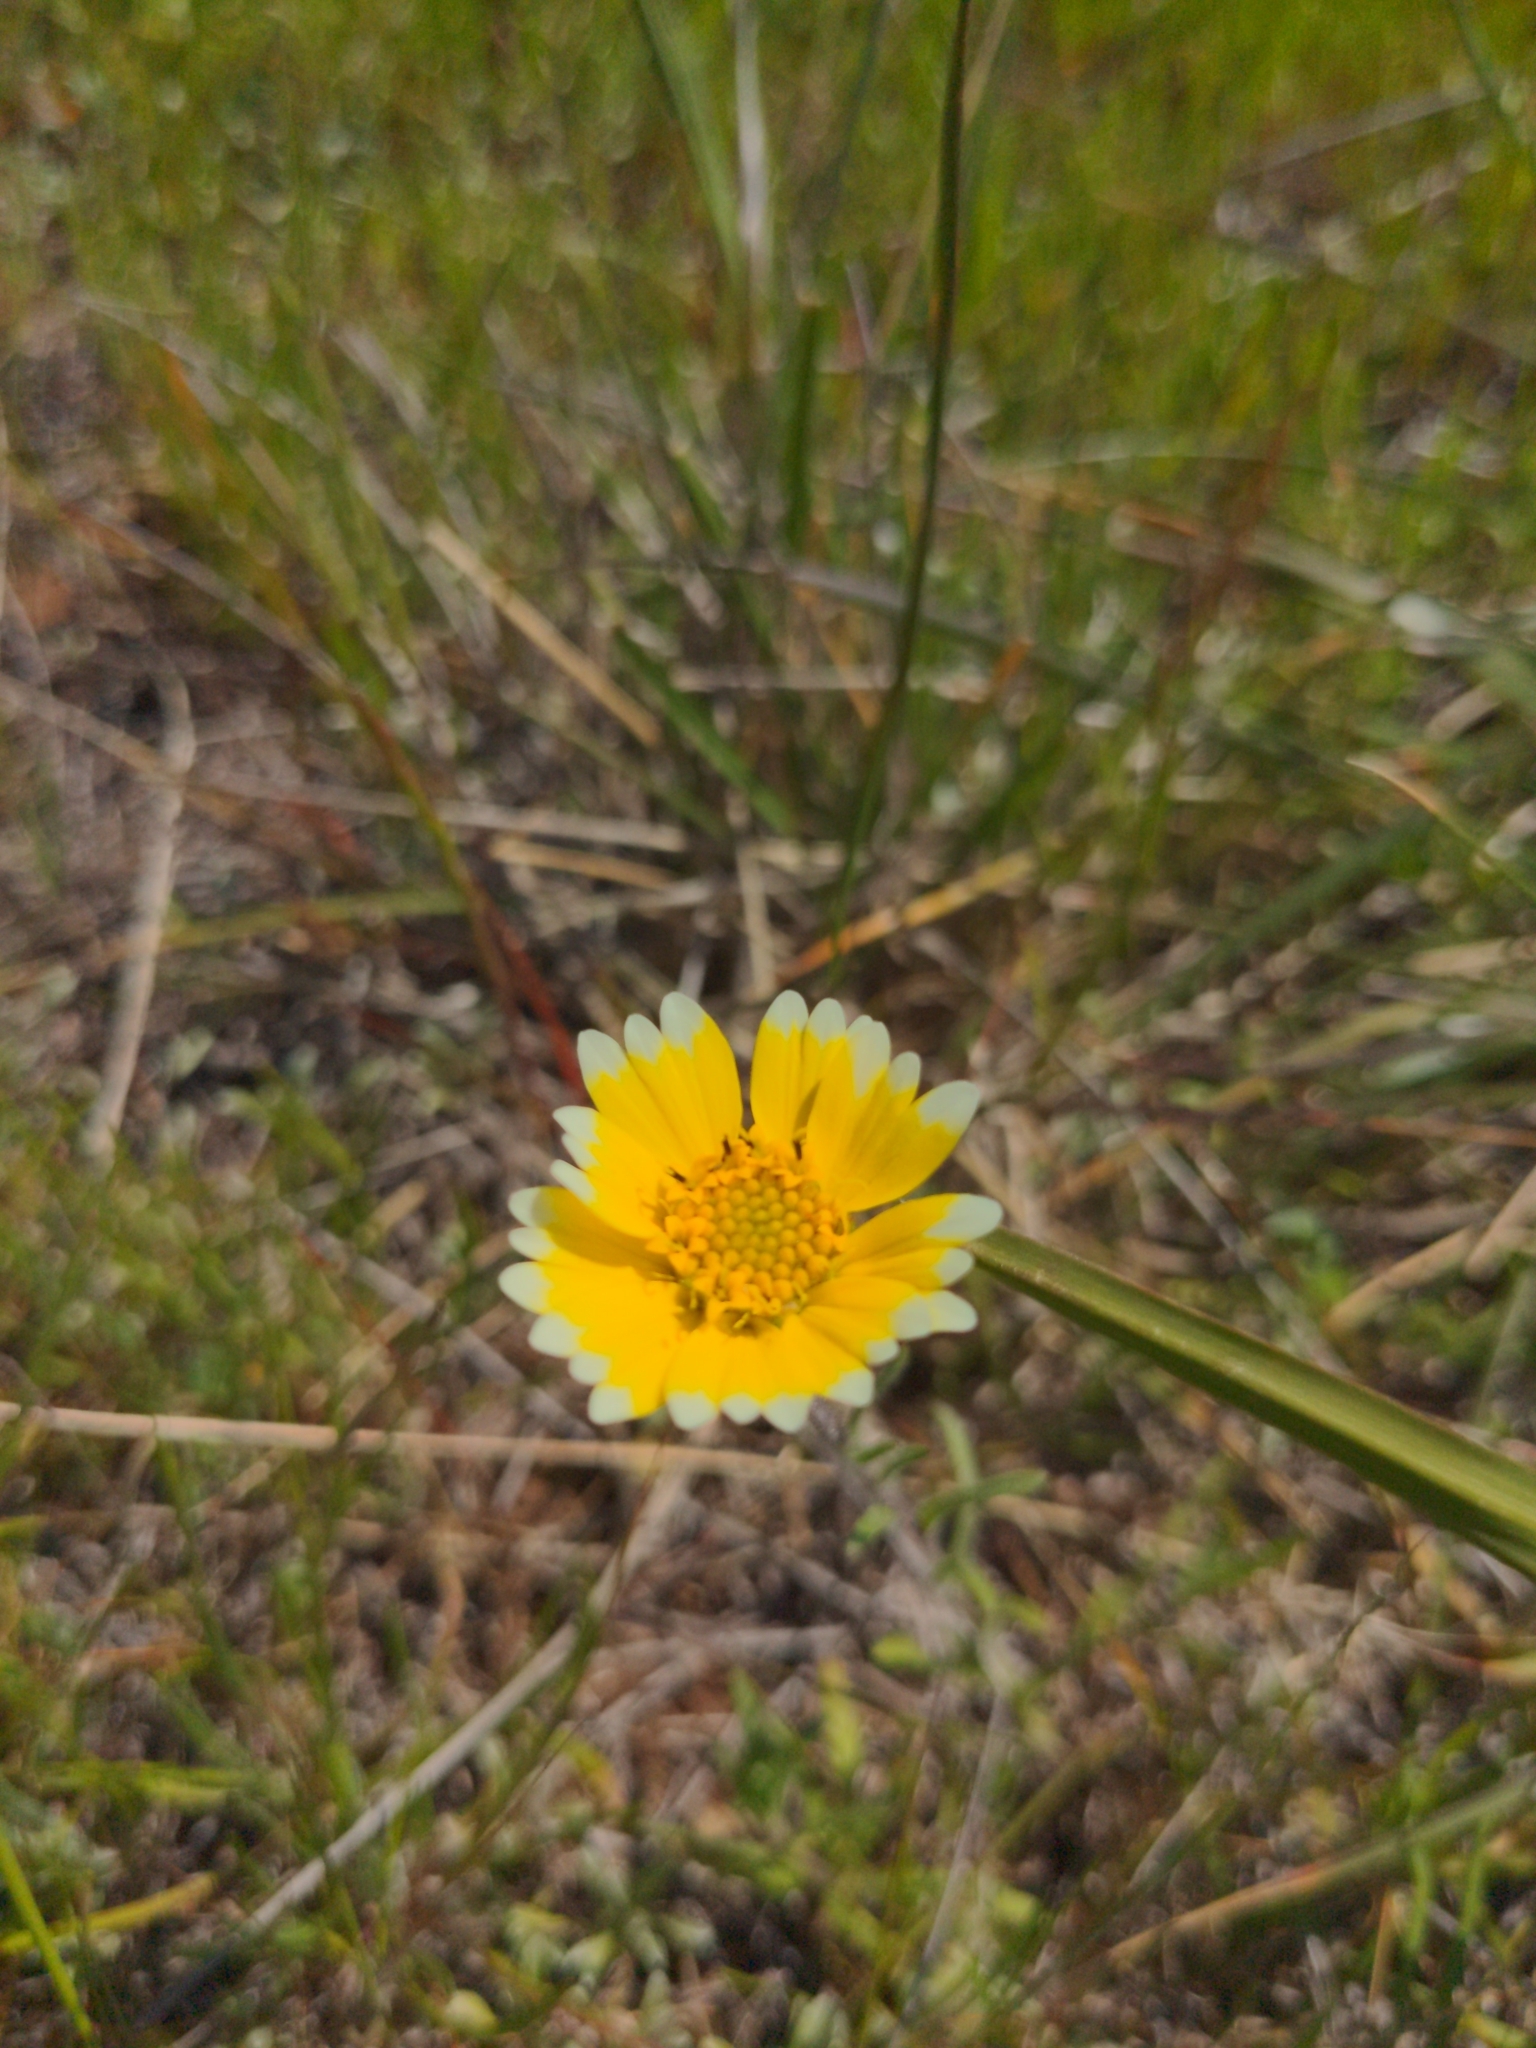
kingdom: Plantae
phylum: Tracheophyta
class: Magnoliopsida
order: Asterales
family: Asteraceae
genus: Layia
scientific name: Layia platyglossa
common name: Tidy-tips
